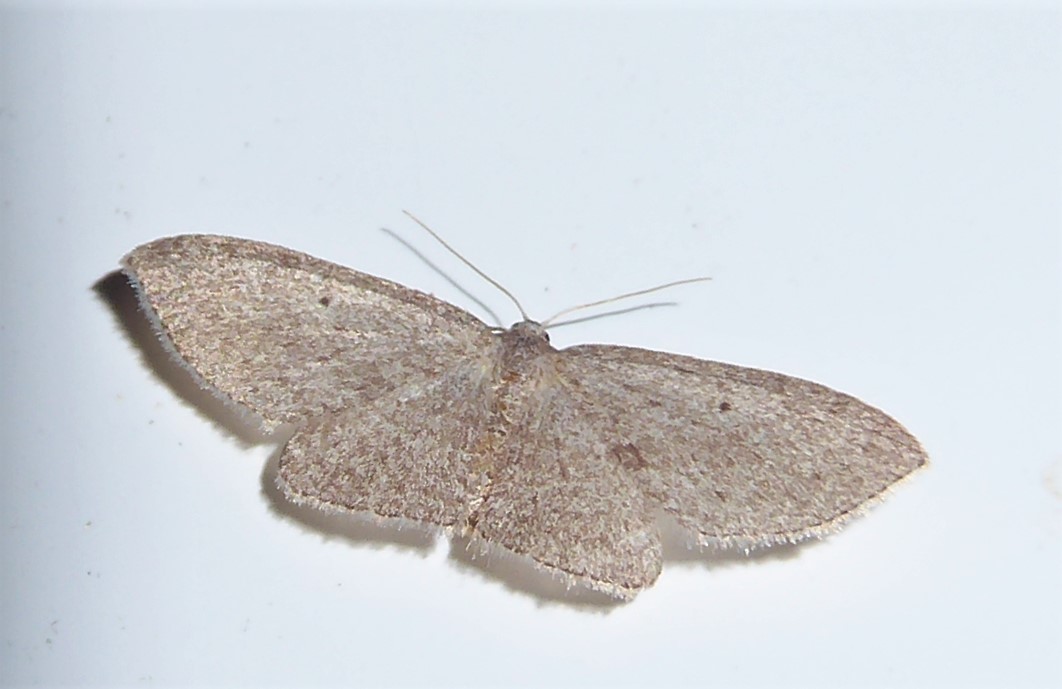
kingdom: Animalia
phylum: Arthropoda
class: Insecta
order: Lepidoptera
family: Geometridae
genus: Poecilasthena
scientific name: Poecilasthena schistaria
